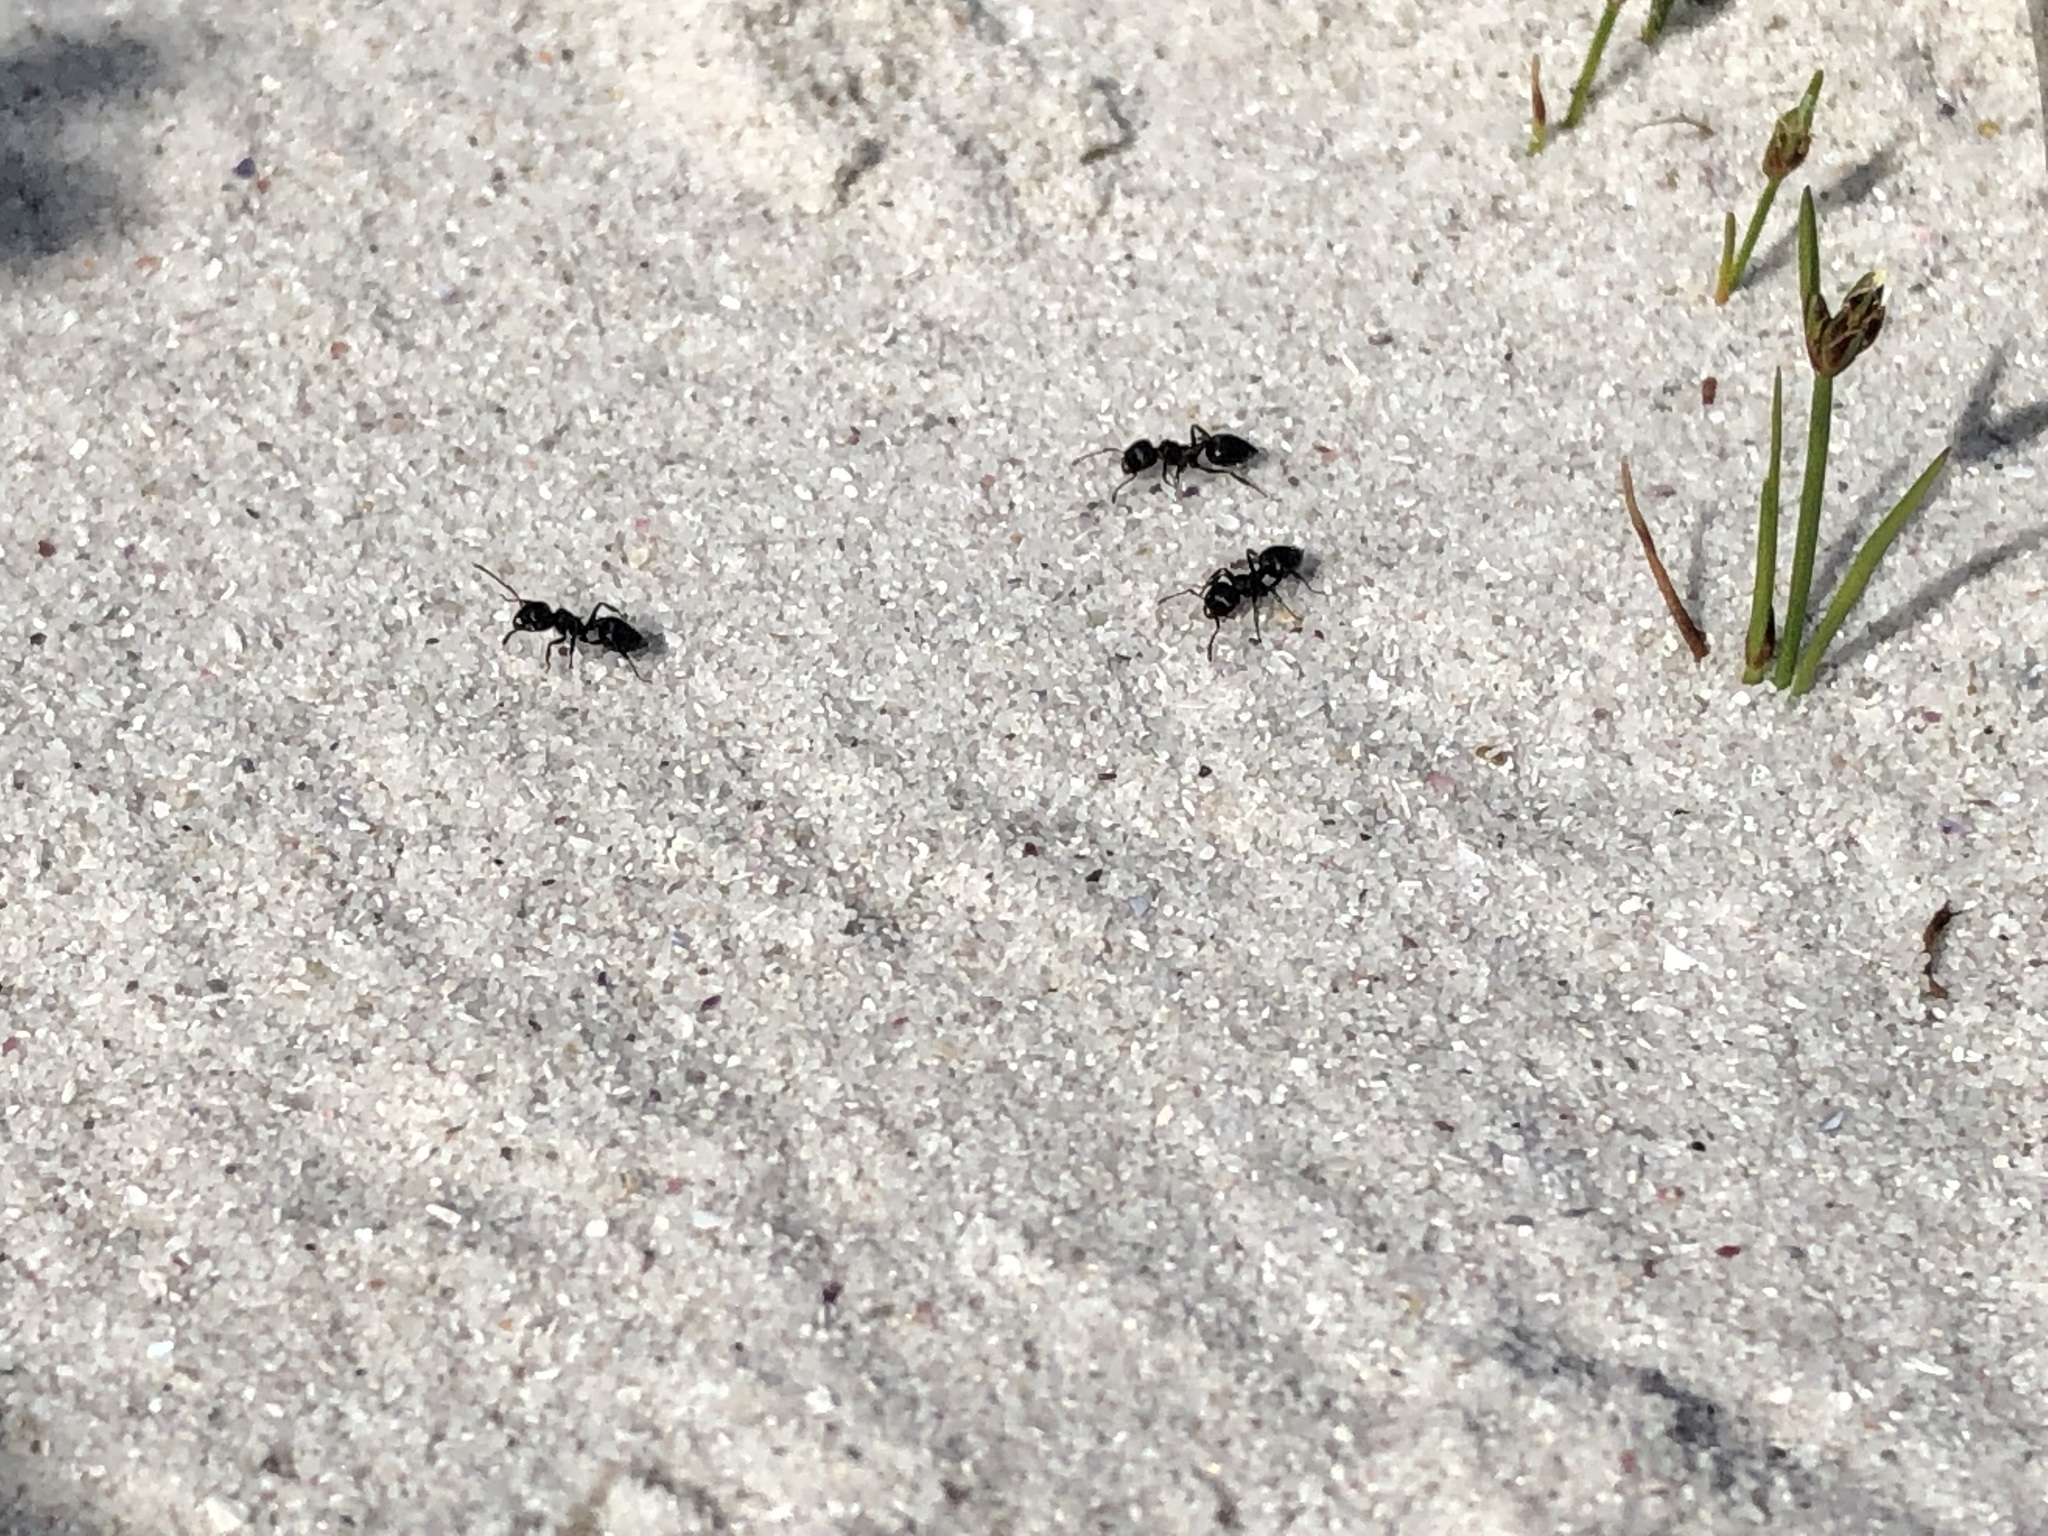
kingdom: Animalia
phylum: Arthropoda
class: Insecta
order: Hymenoptera
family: Formicidae
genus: Crematogaster
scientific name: Crematogaster peringueyi
